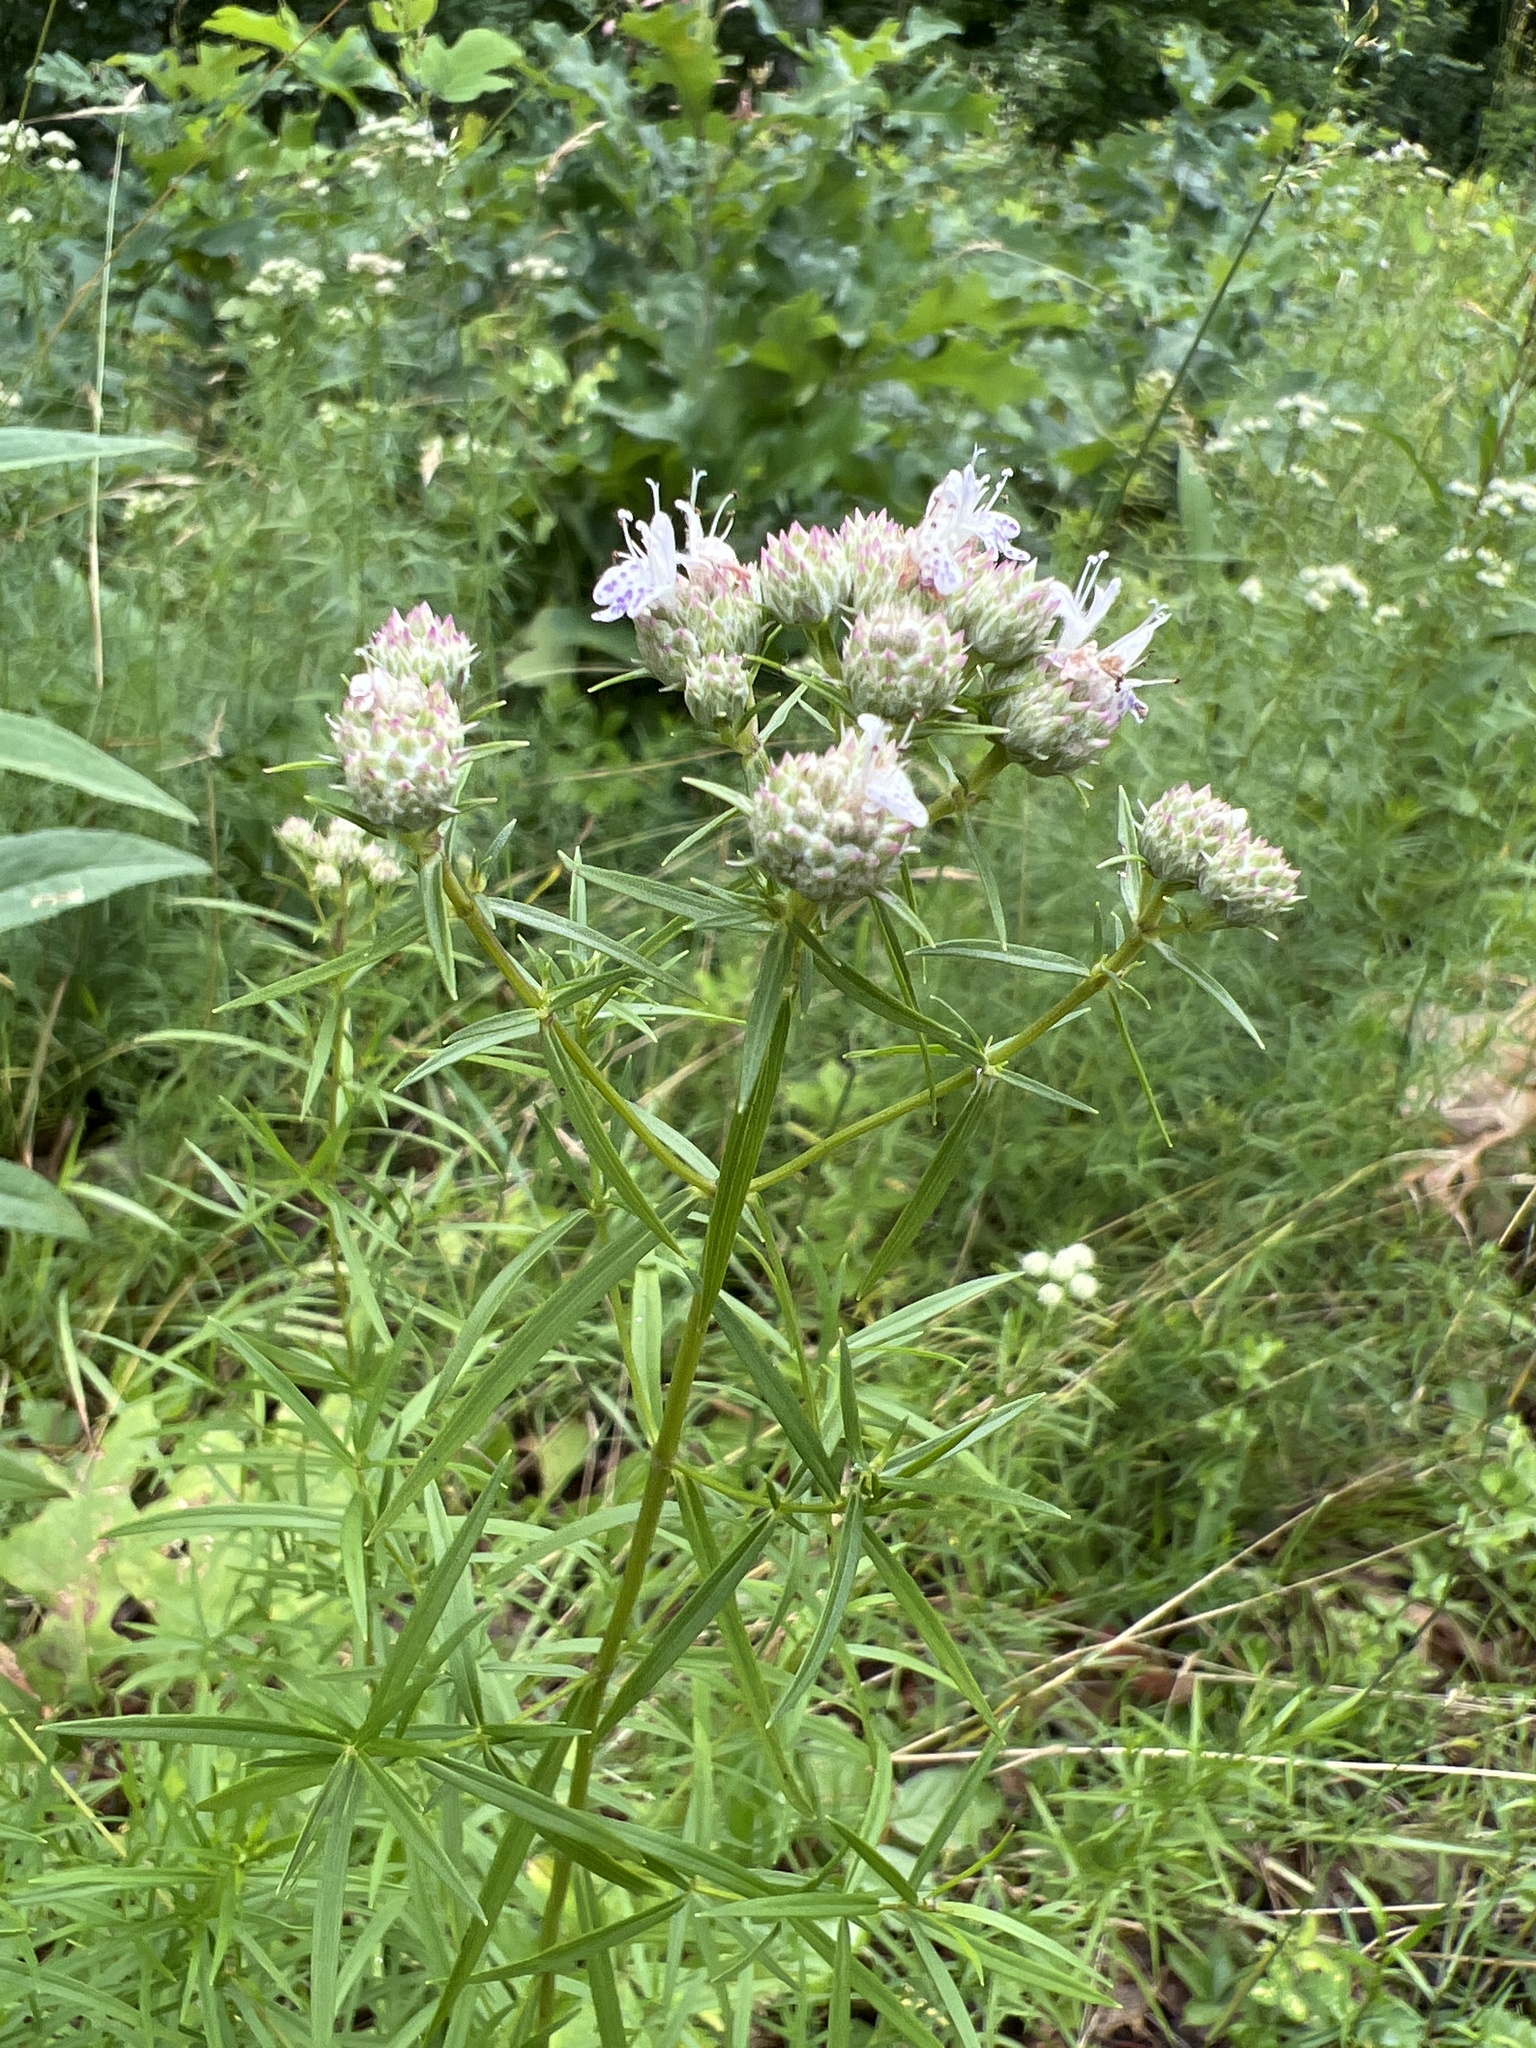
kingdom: Plantae
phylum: Tracheophyta
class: Magnoliopsida
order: Lamiales
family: Lamiaceae
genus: Pycnanthemum
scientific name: Pycnanthemum tenuifolium
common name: Narrow-leaf mountain-mint
